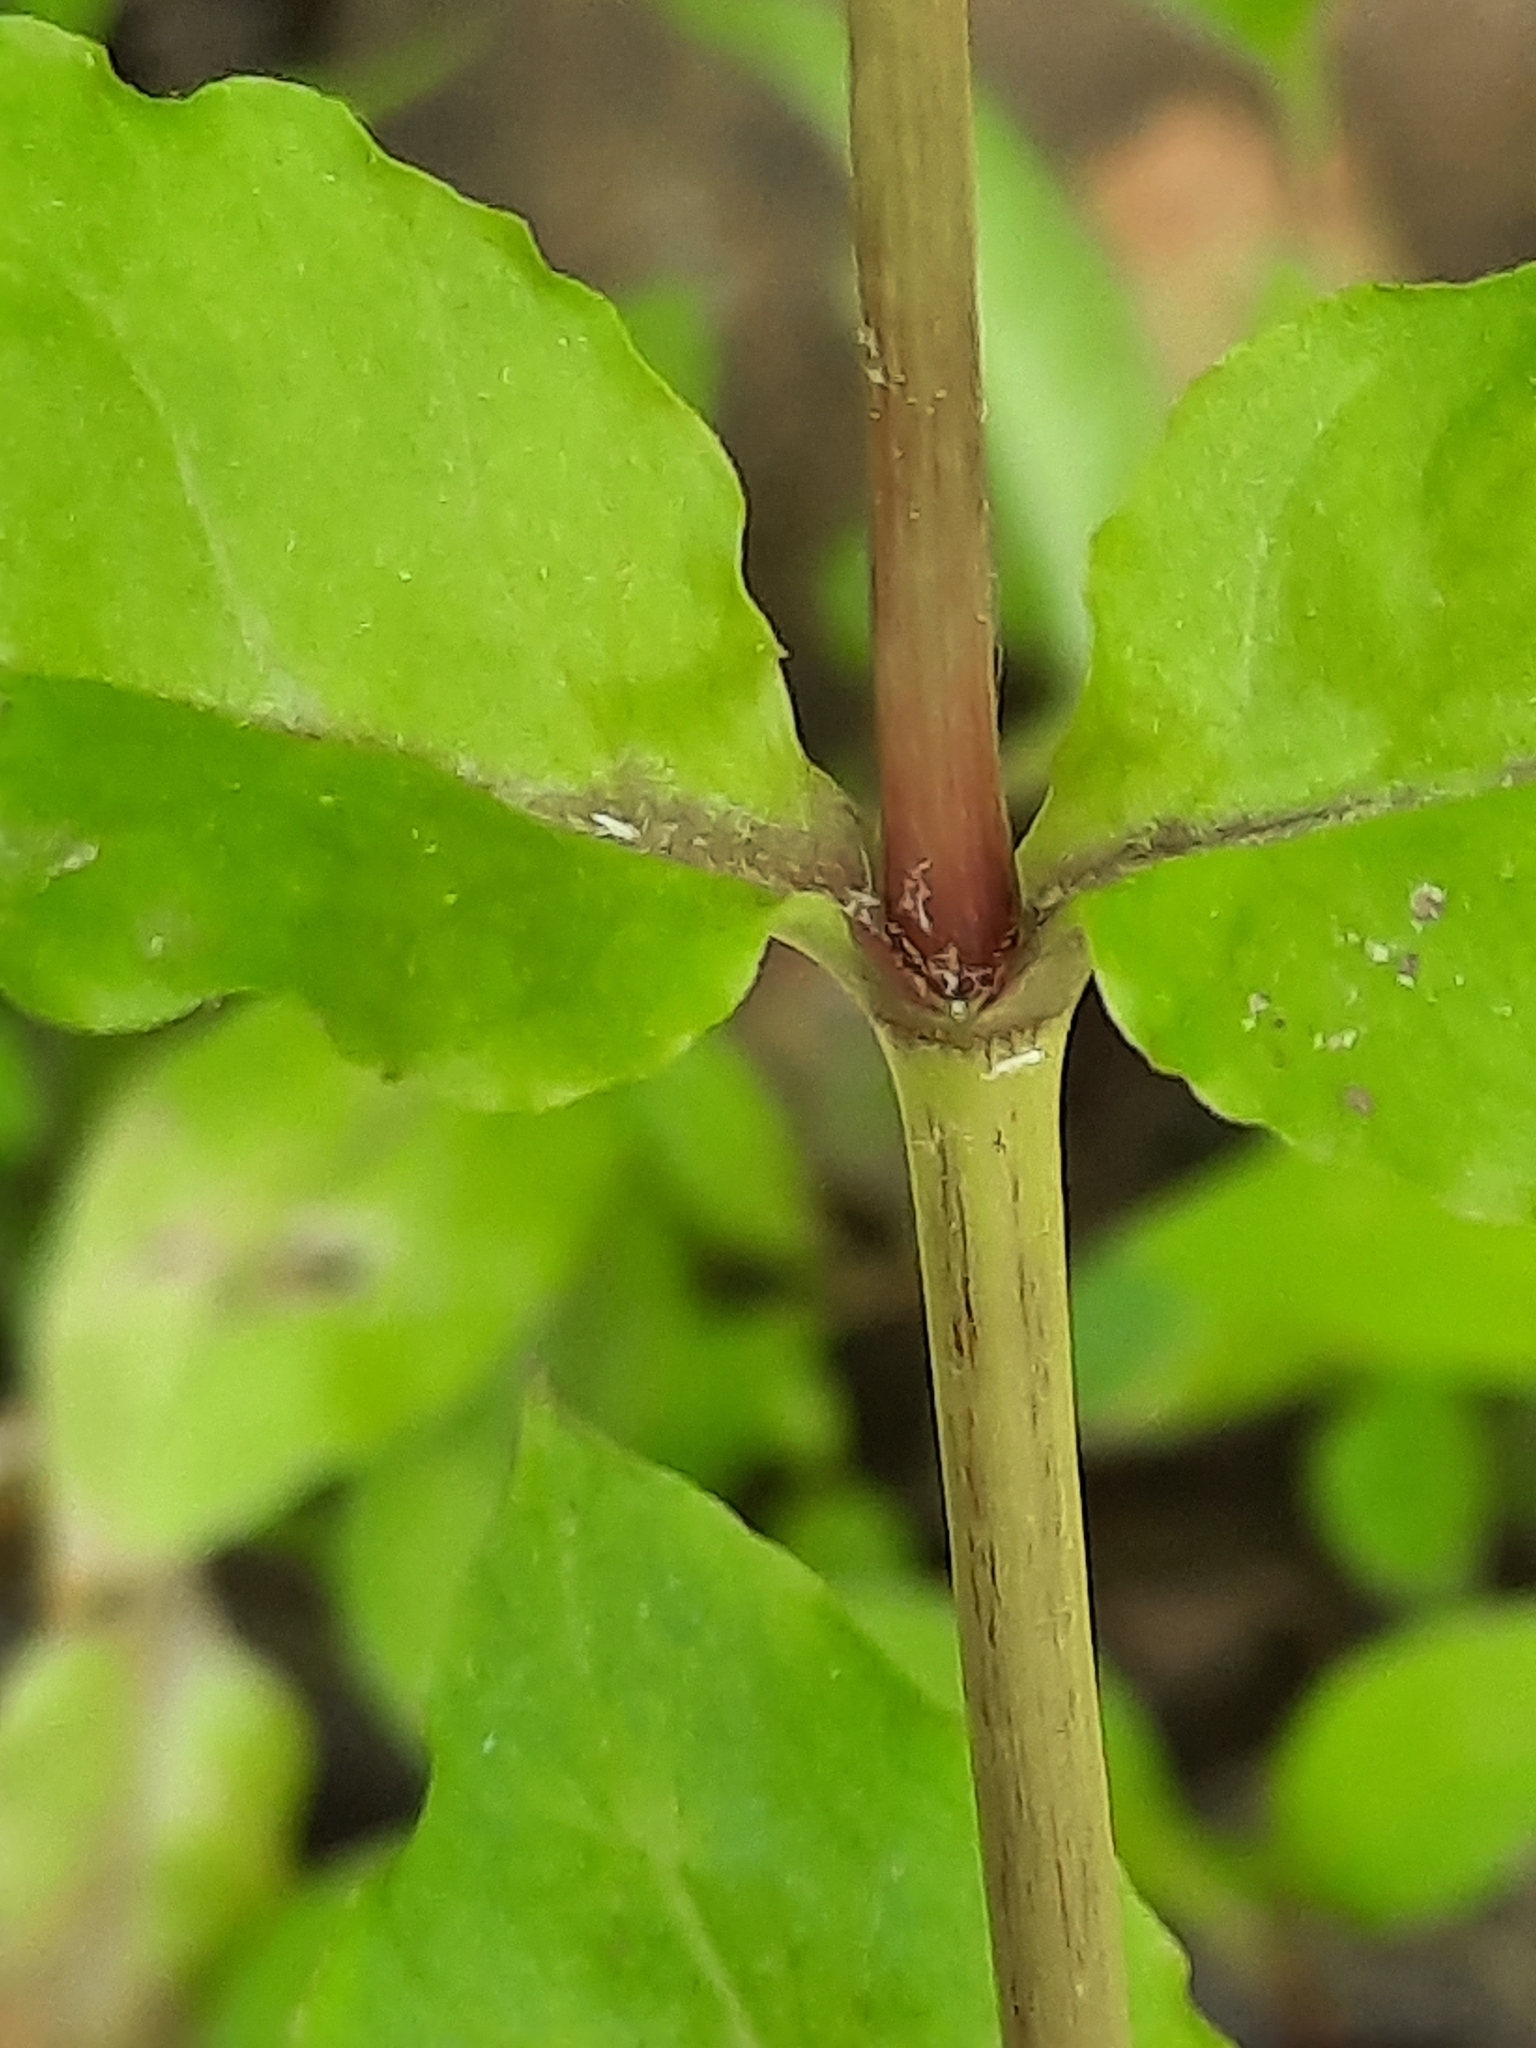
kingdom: Plantae
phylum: Tracheophyta
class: Magnoliopsida
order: Caryophyllales
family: Caryophyllaceae
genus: Stellaria
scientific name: Stellaria aquatica
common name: Water chickweed
